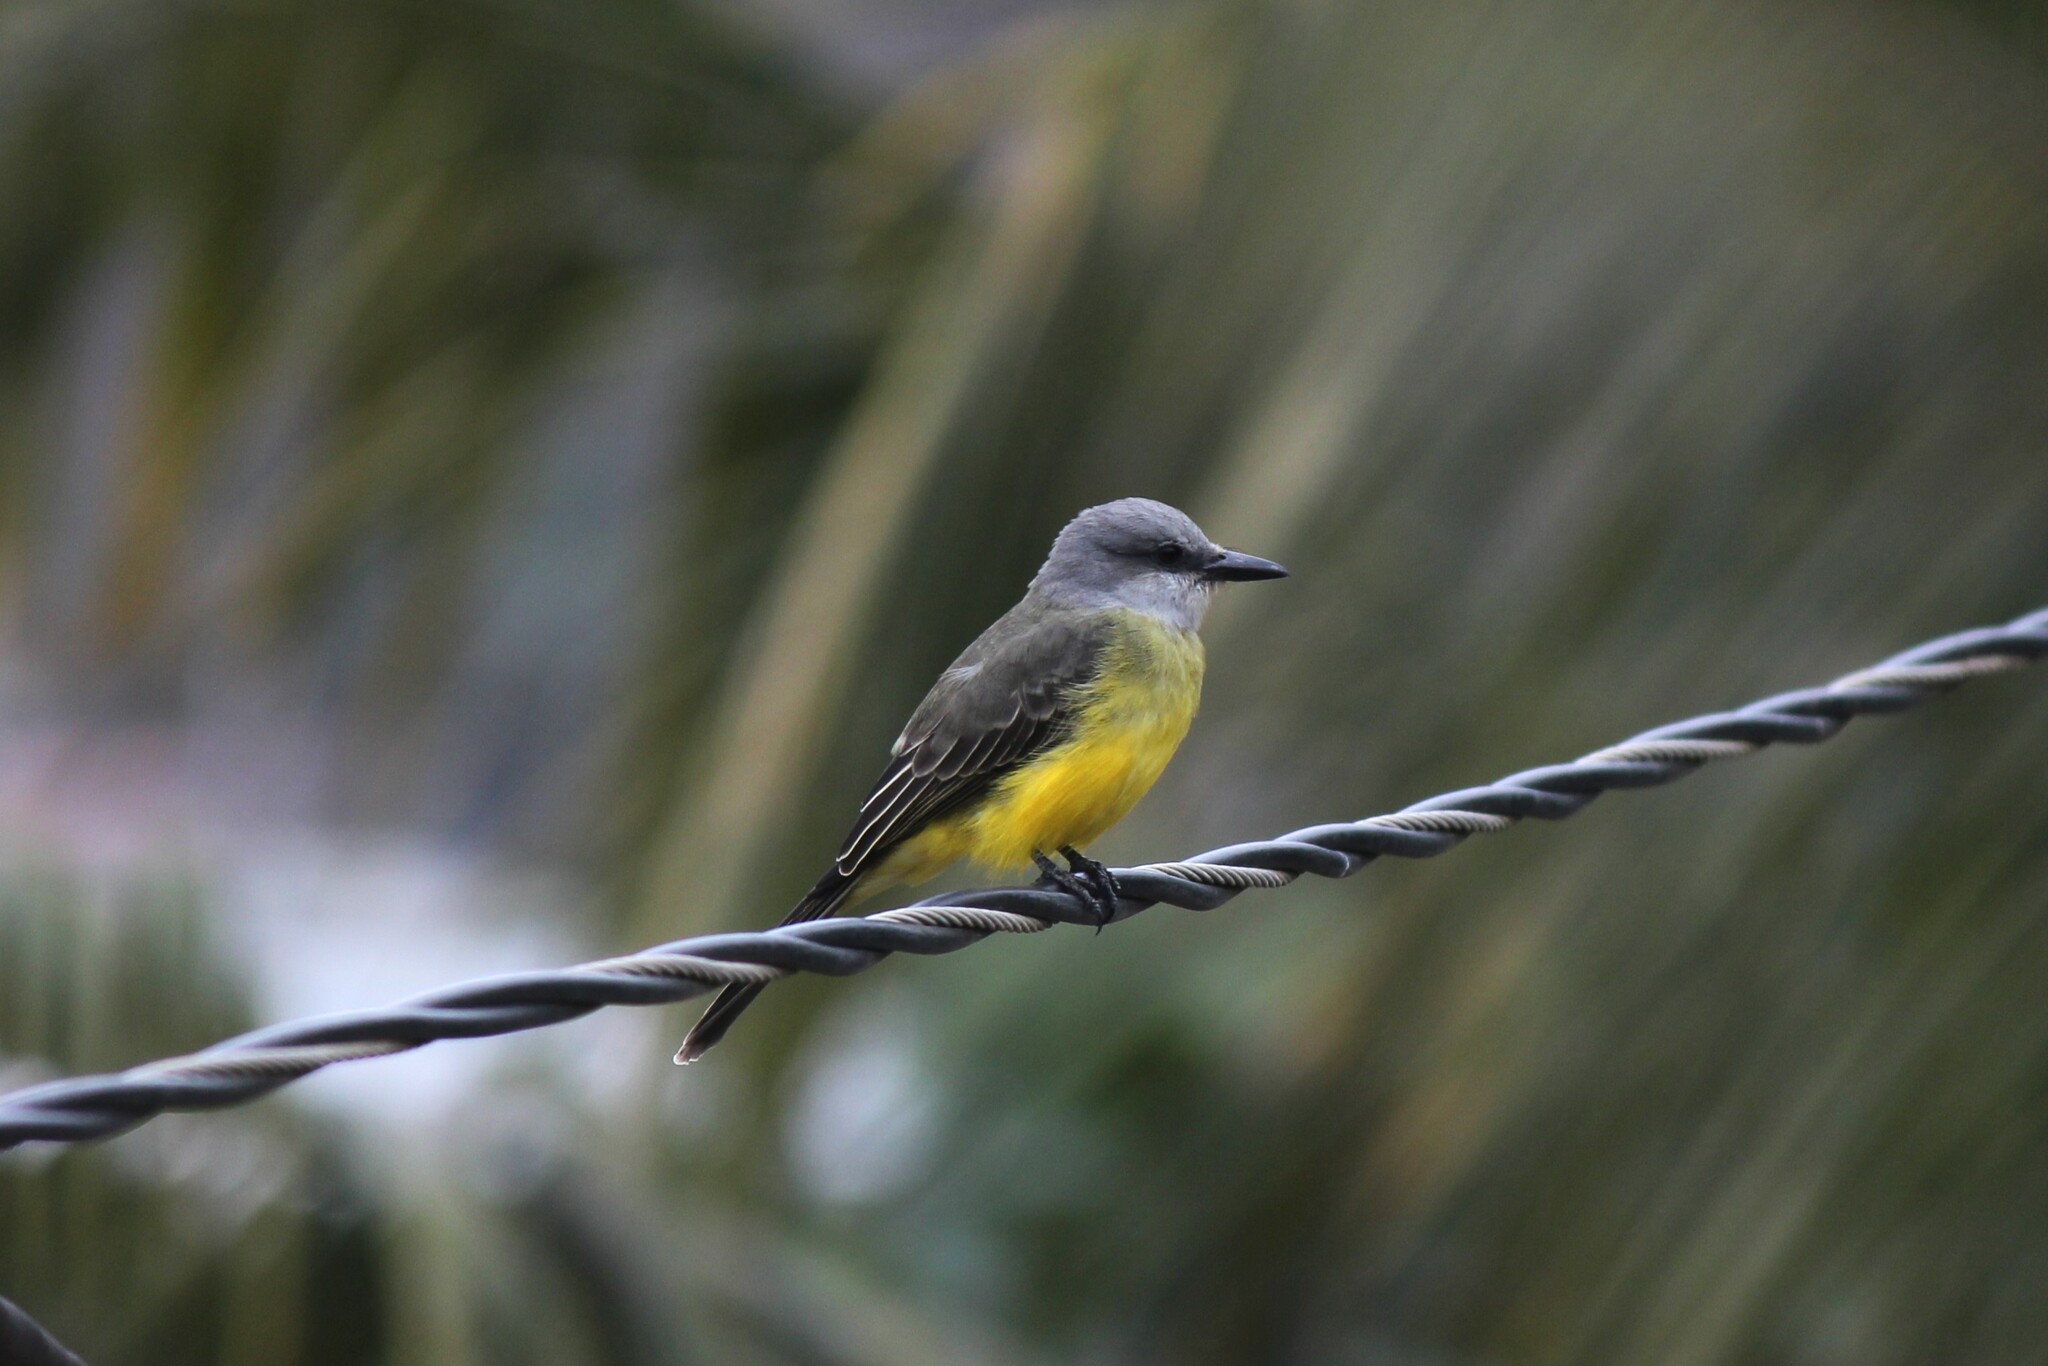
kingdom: Animalia
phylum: Chordata
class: Aves
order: Passeriformes
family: Tyrannidae
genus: Tyrannus
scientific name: Tyrannus melancholicus
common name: Tropical kingbird
